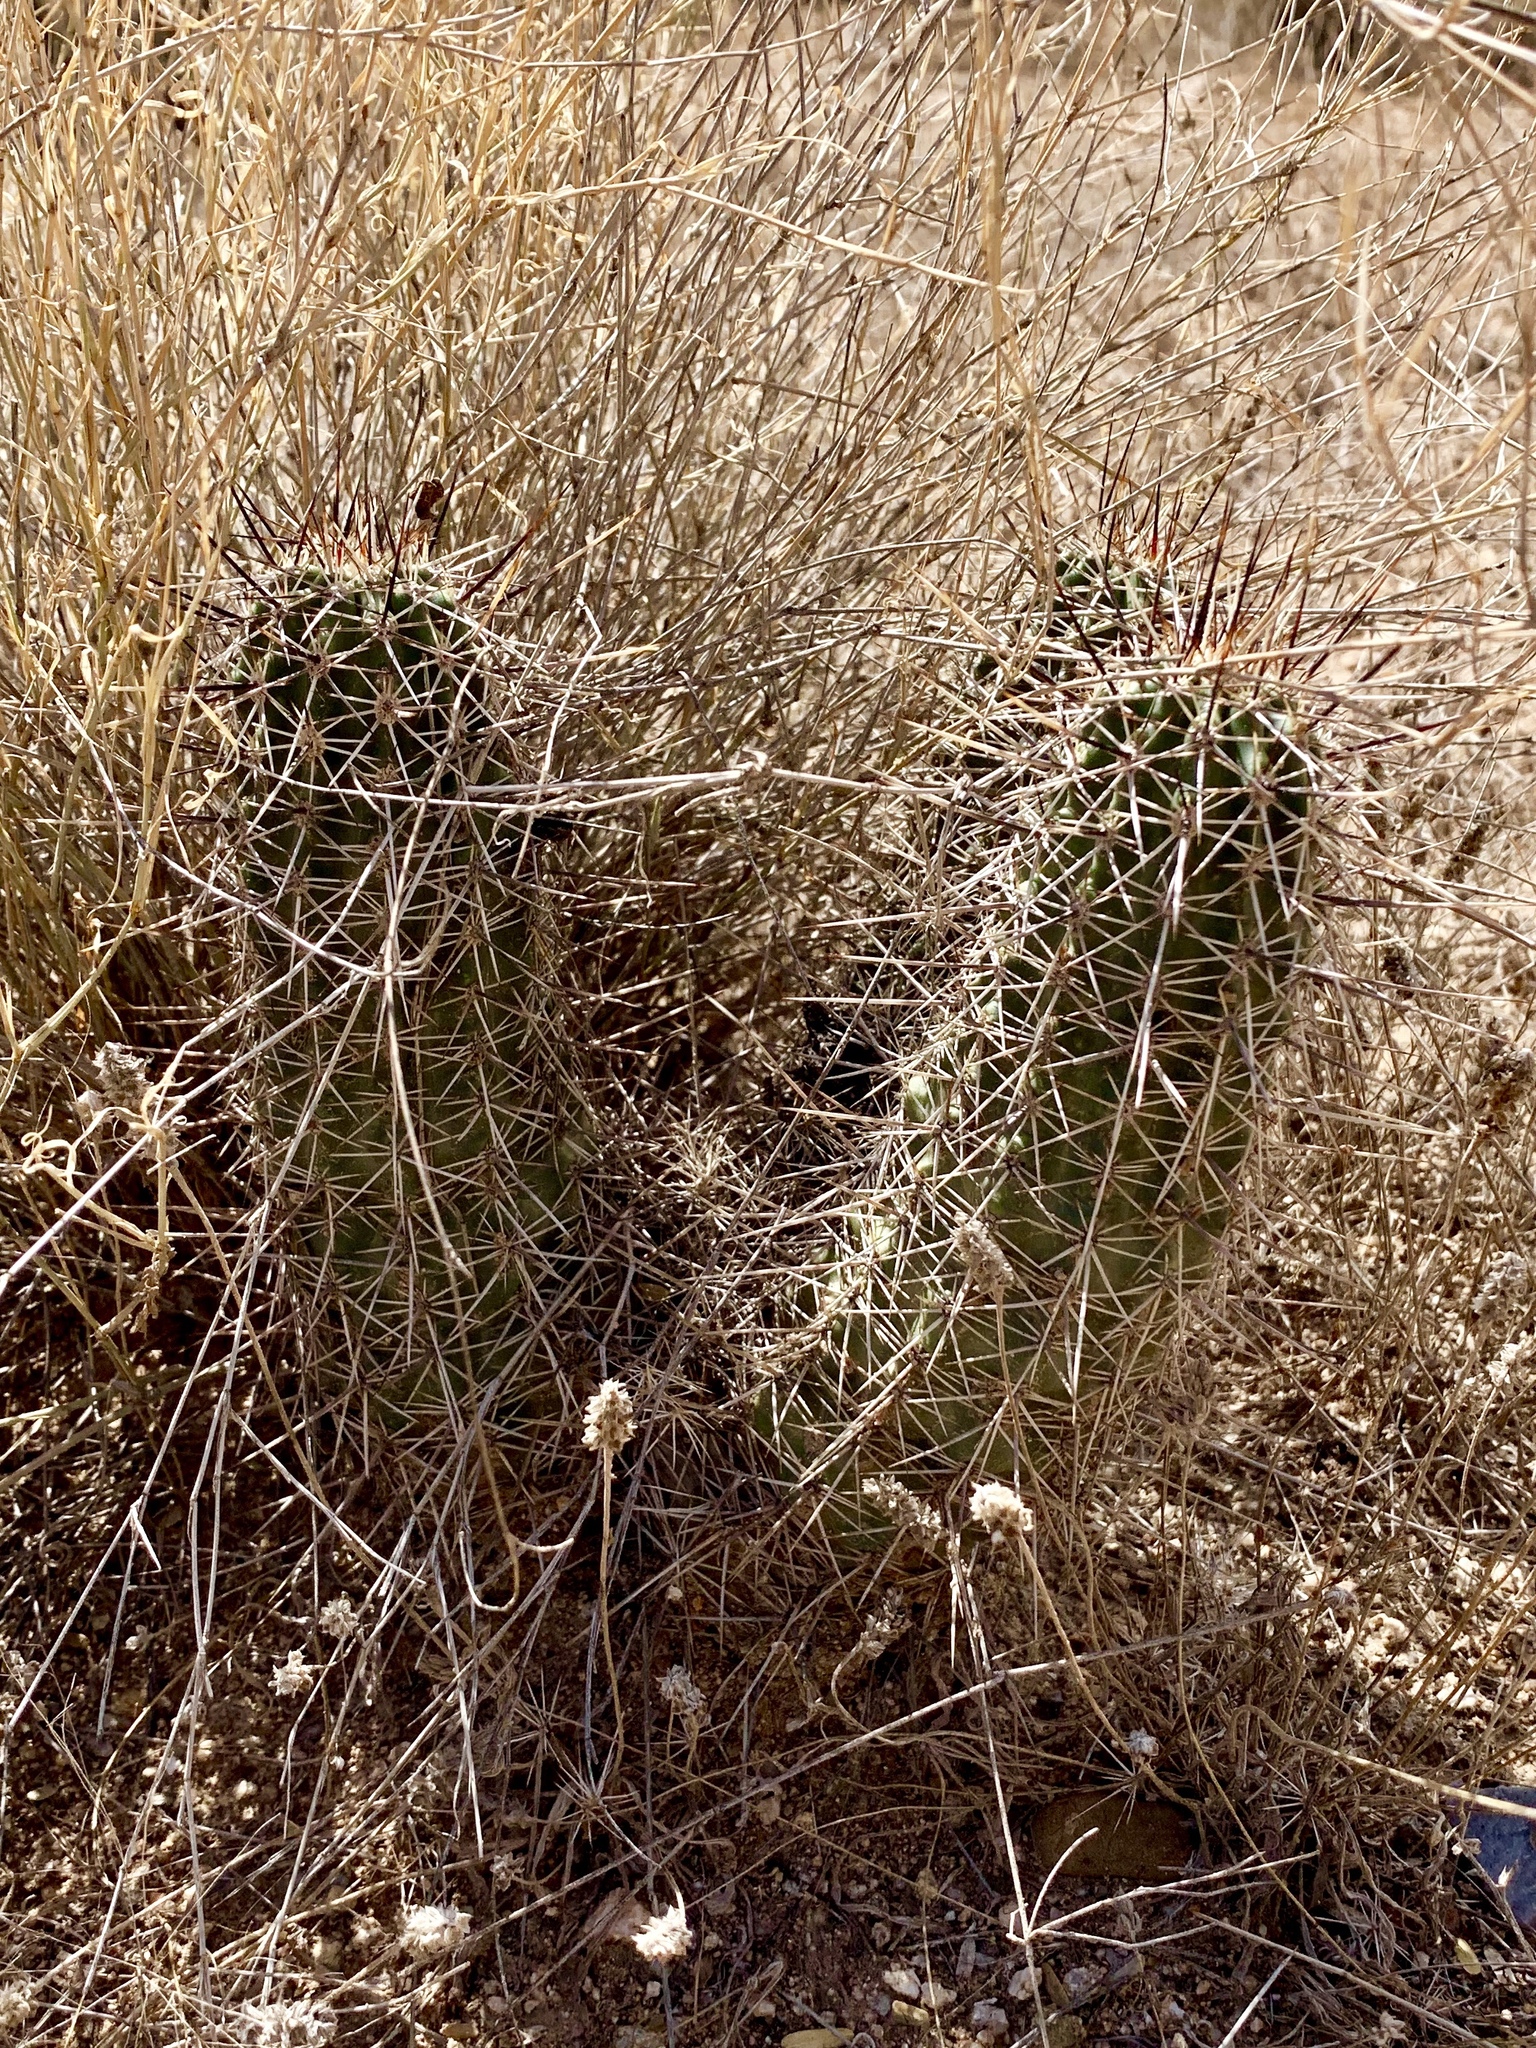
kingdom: Plantae
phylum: Tracheophyta
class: Magnoliopsida
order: Caryophyllales
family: Cactaceae
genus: Echinocereus
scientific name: Echinocereus fasciculatus
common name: Bundle hedgehog
